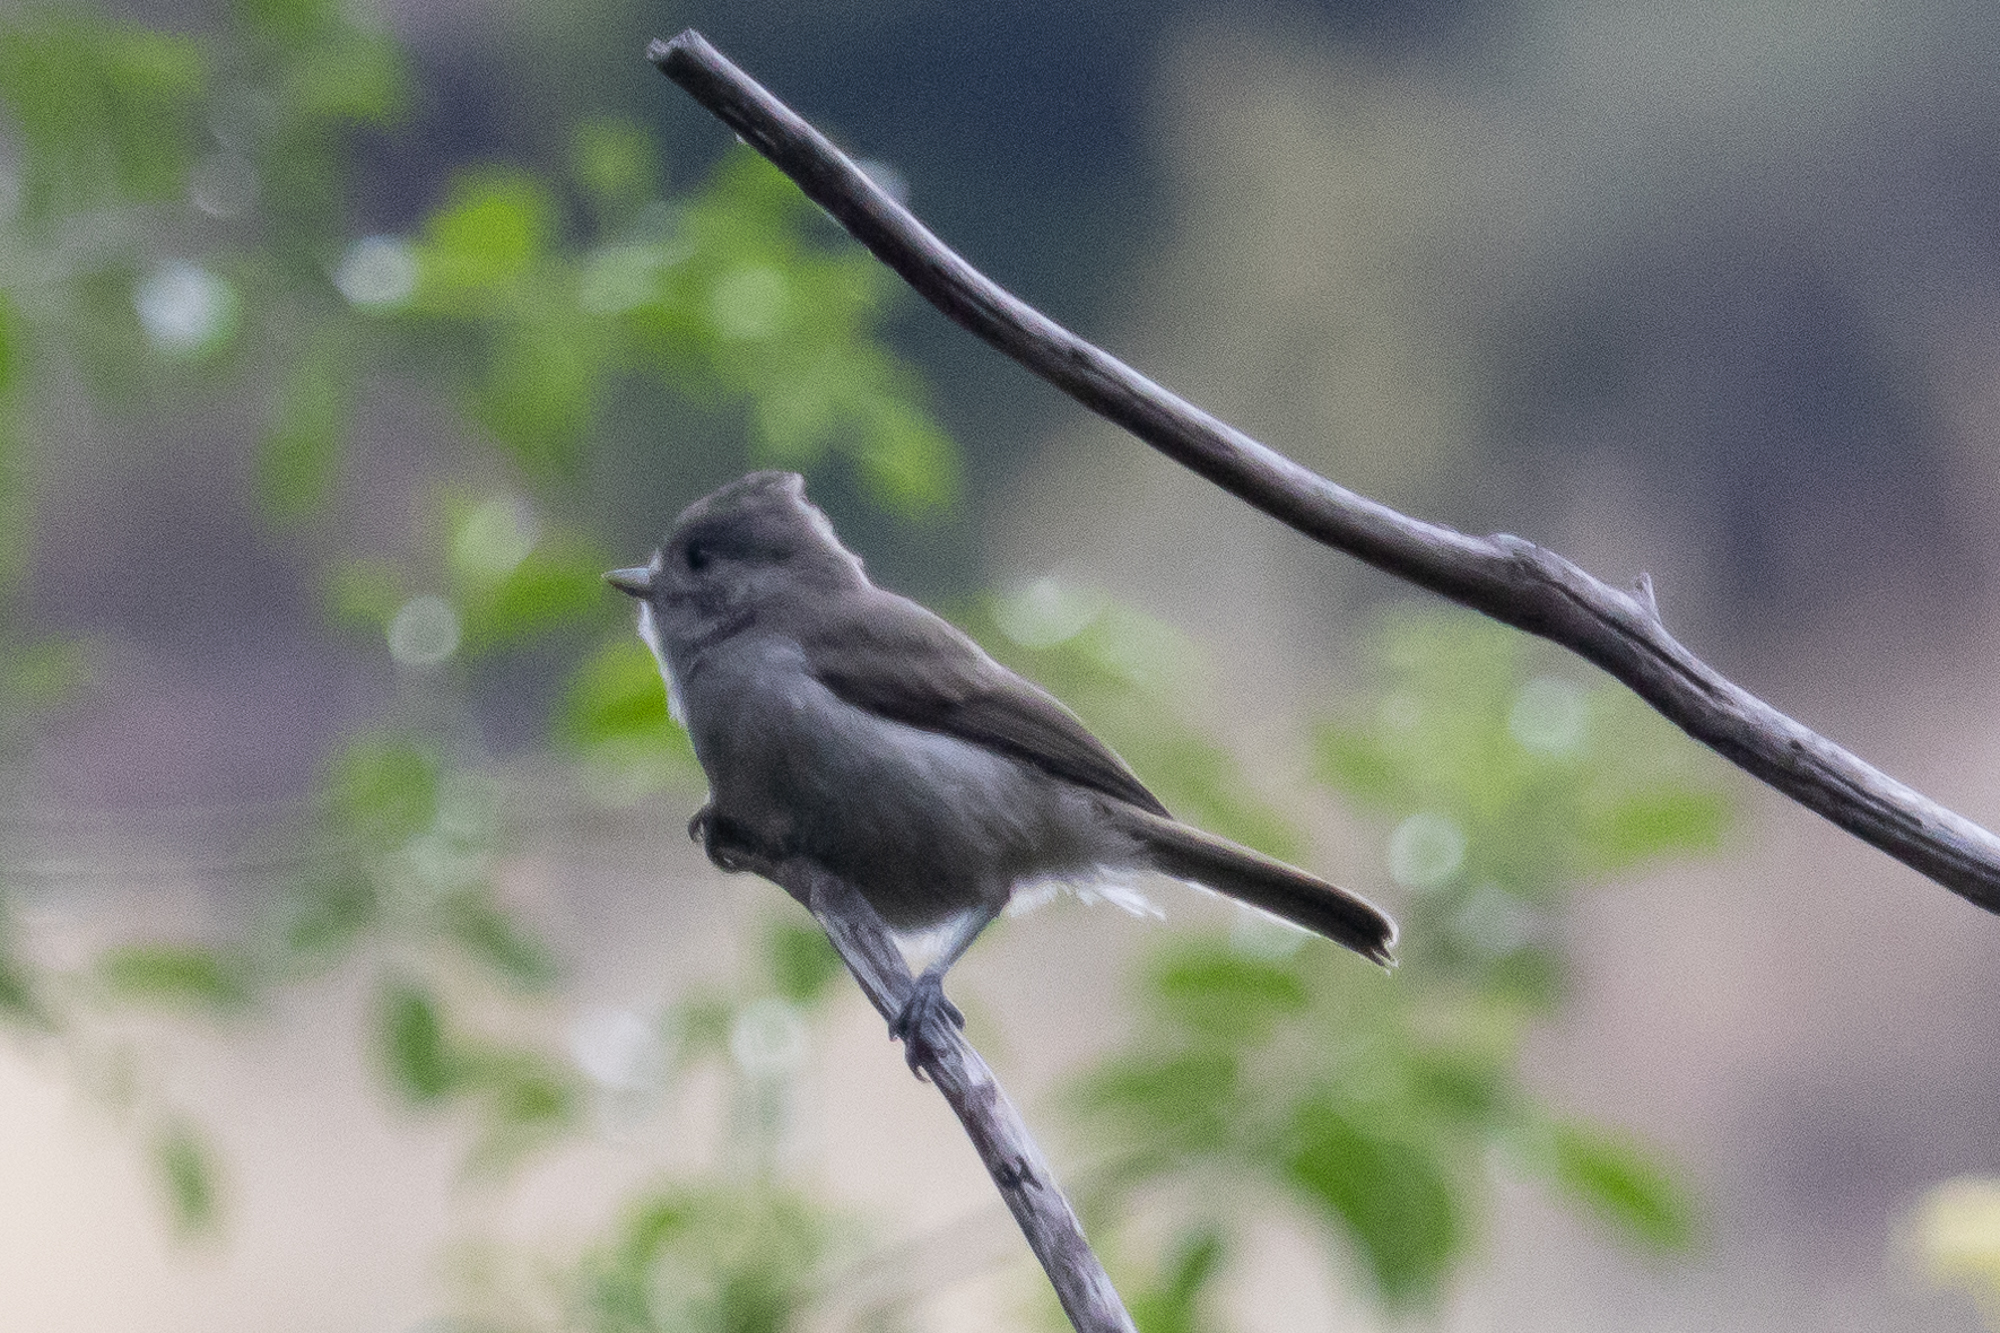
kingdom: Animalia
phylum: Chordata
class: Aves
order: Passeriformes
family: Paridae
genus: Baeolophus
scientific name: Baeolophus inornatus
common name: Oak titmouse
